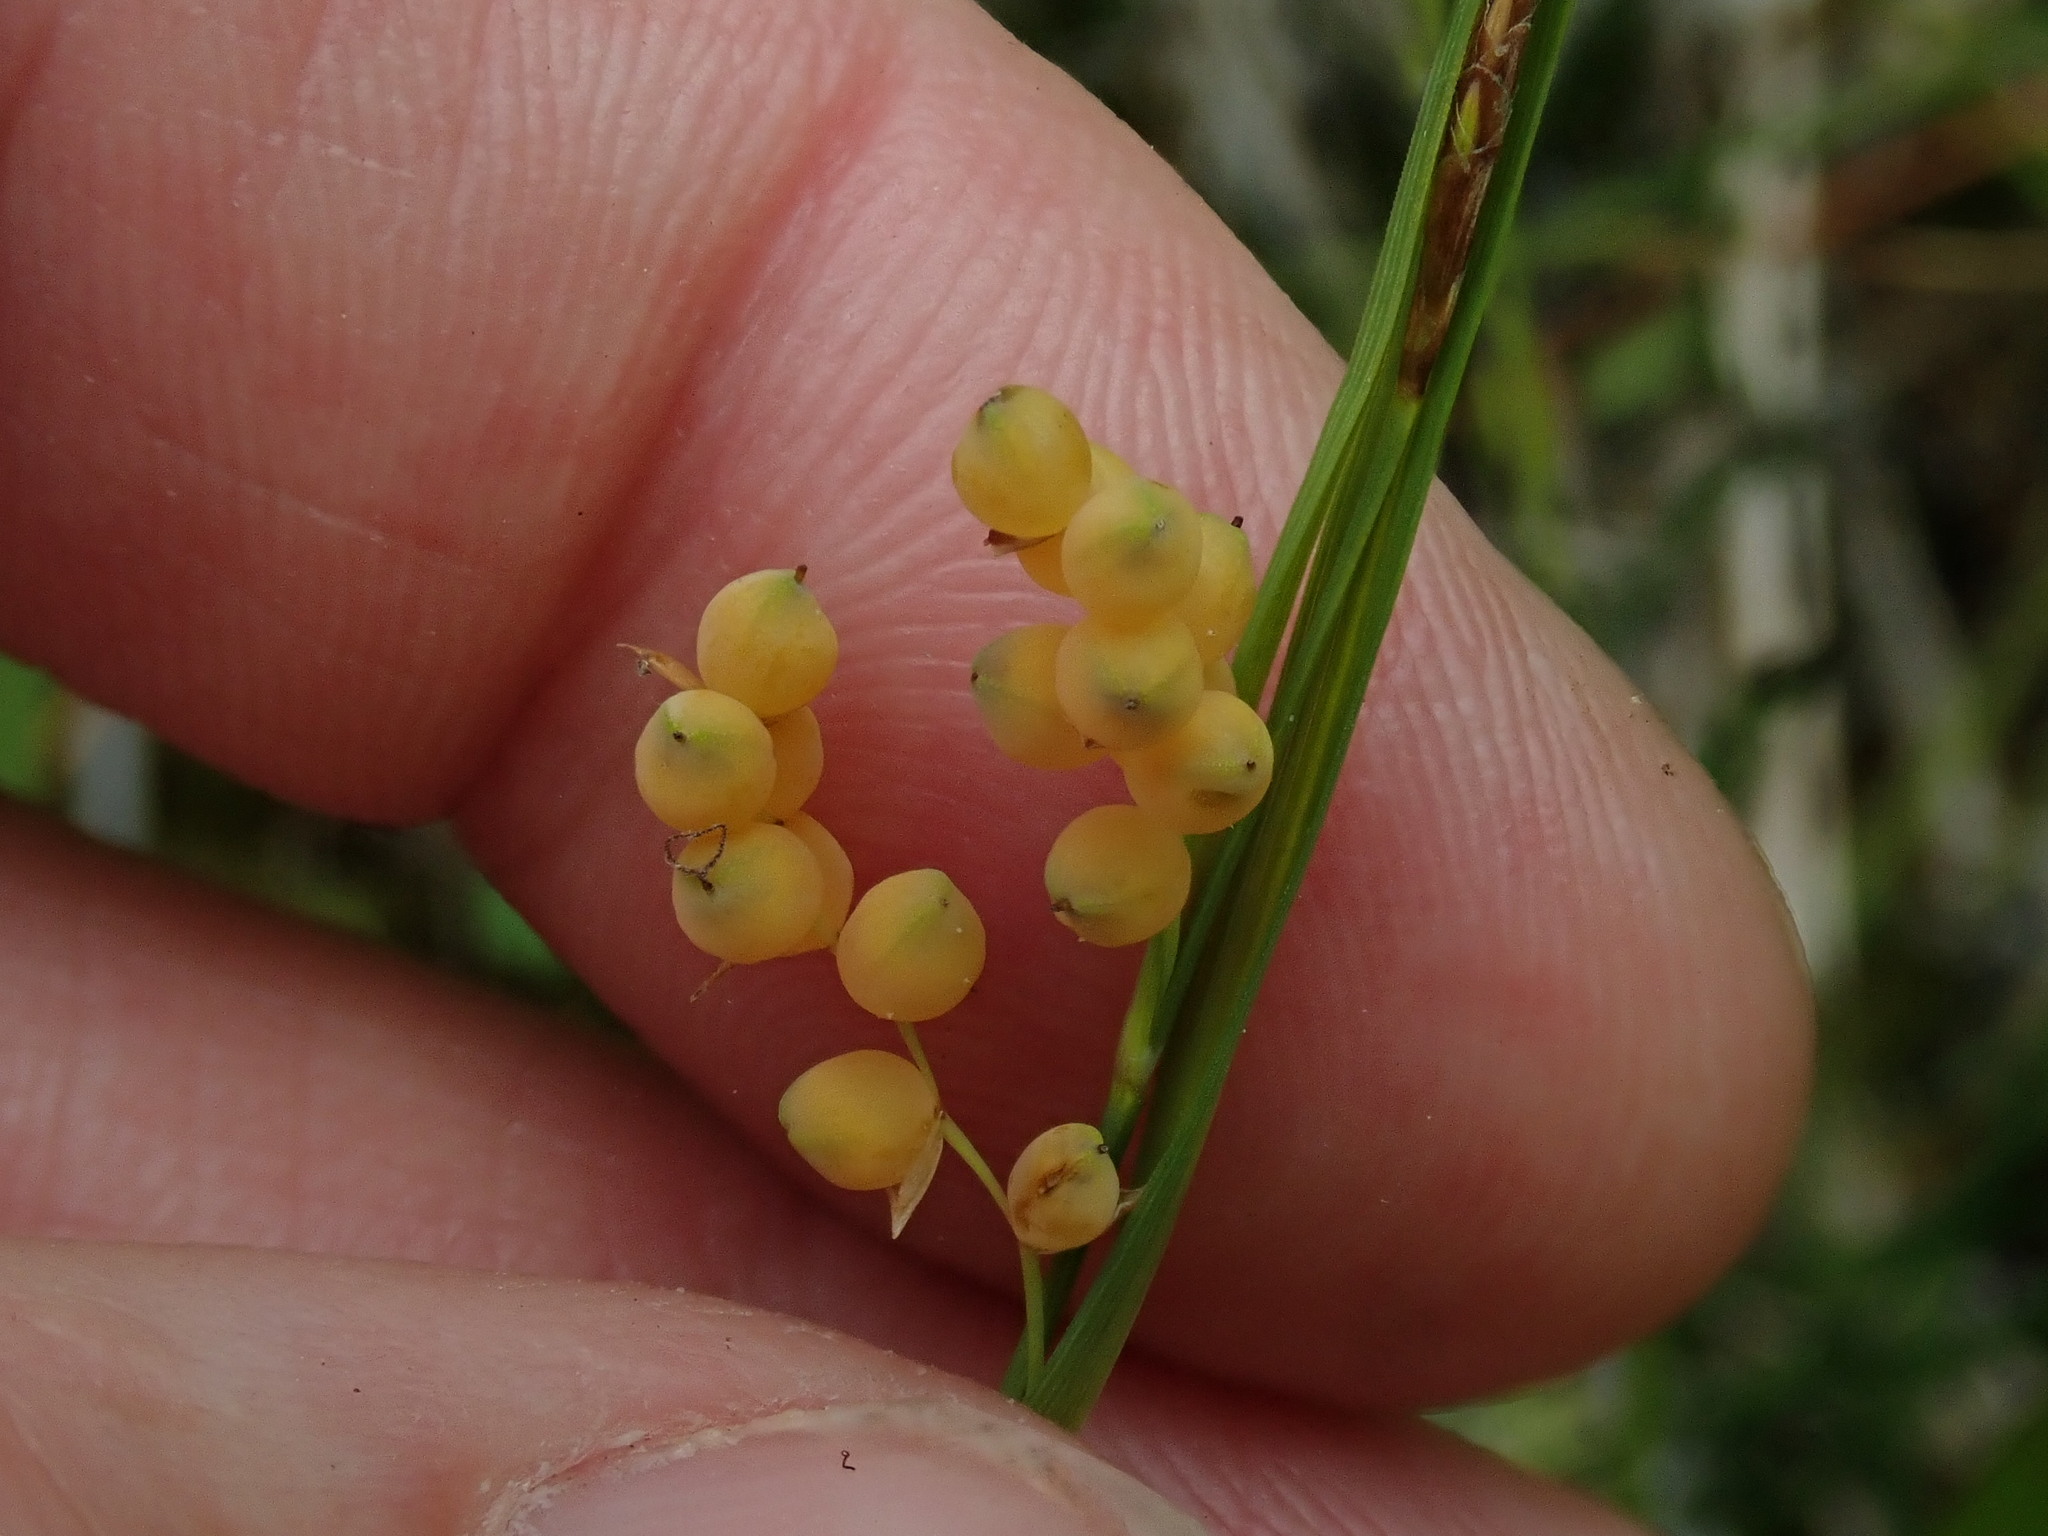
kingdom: Plantae
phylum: Tracheophyta
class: Liliopsida
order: Poales
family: Cyperaceae
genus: Carex
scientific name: Carex aurea
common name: Golden sedge
